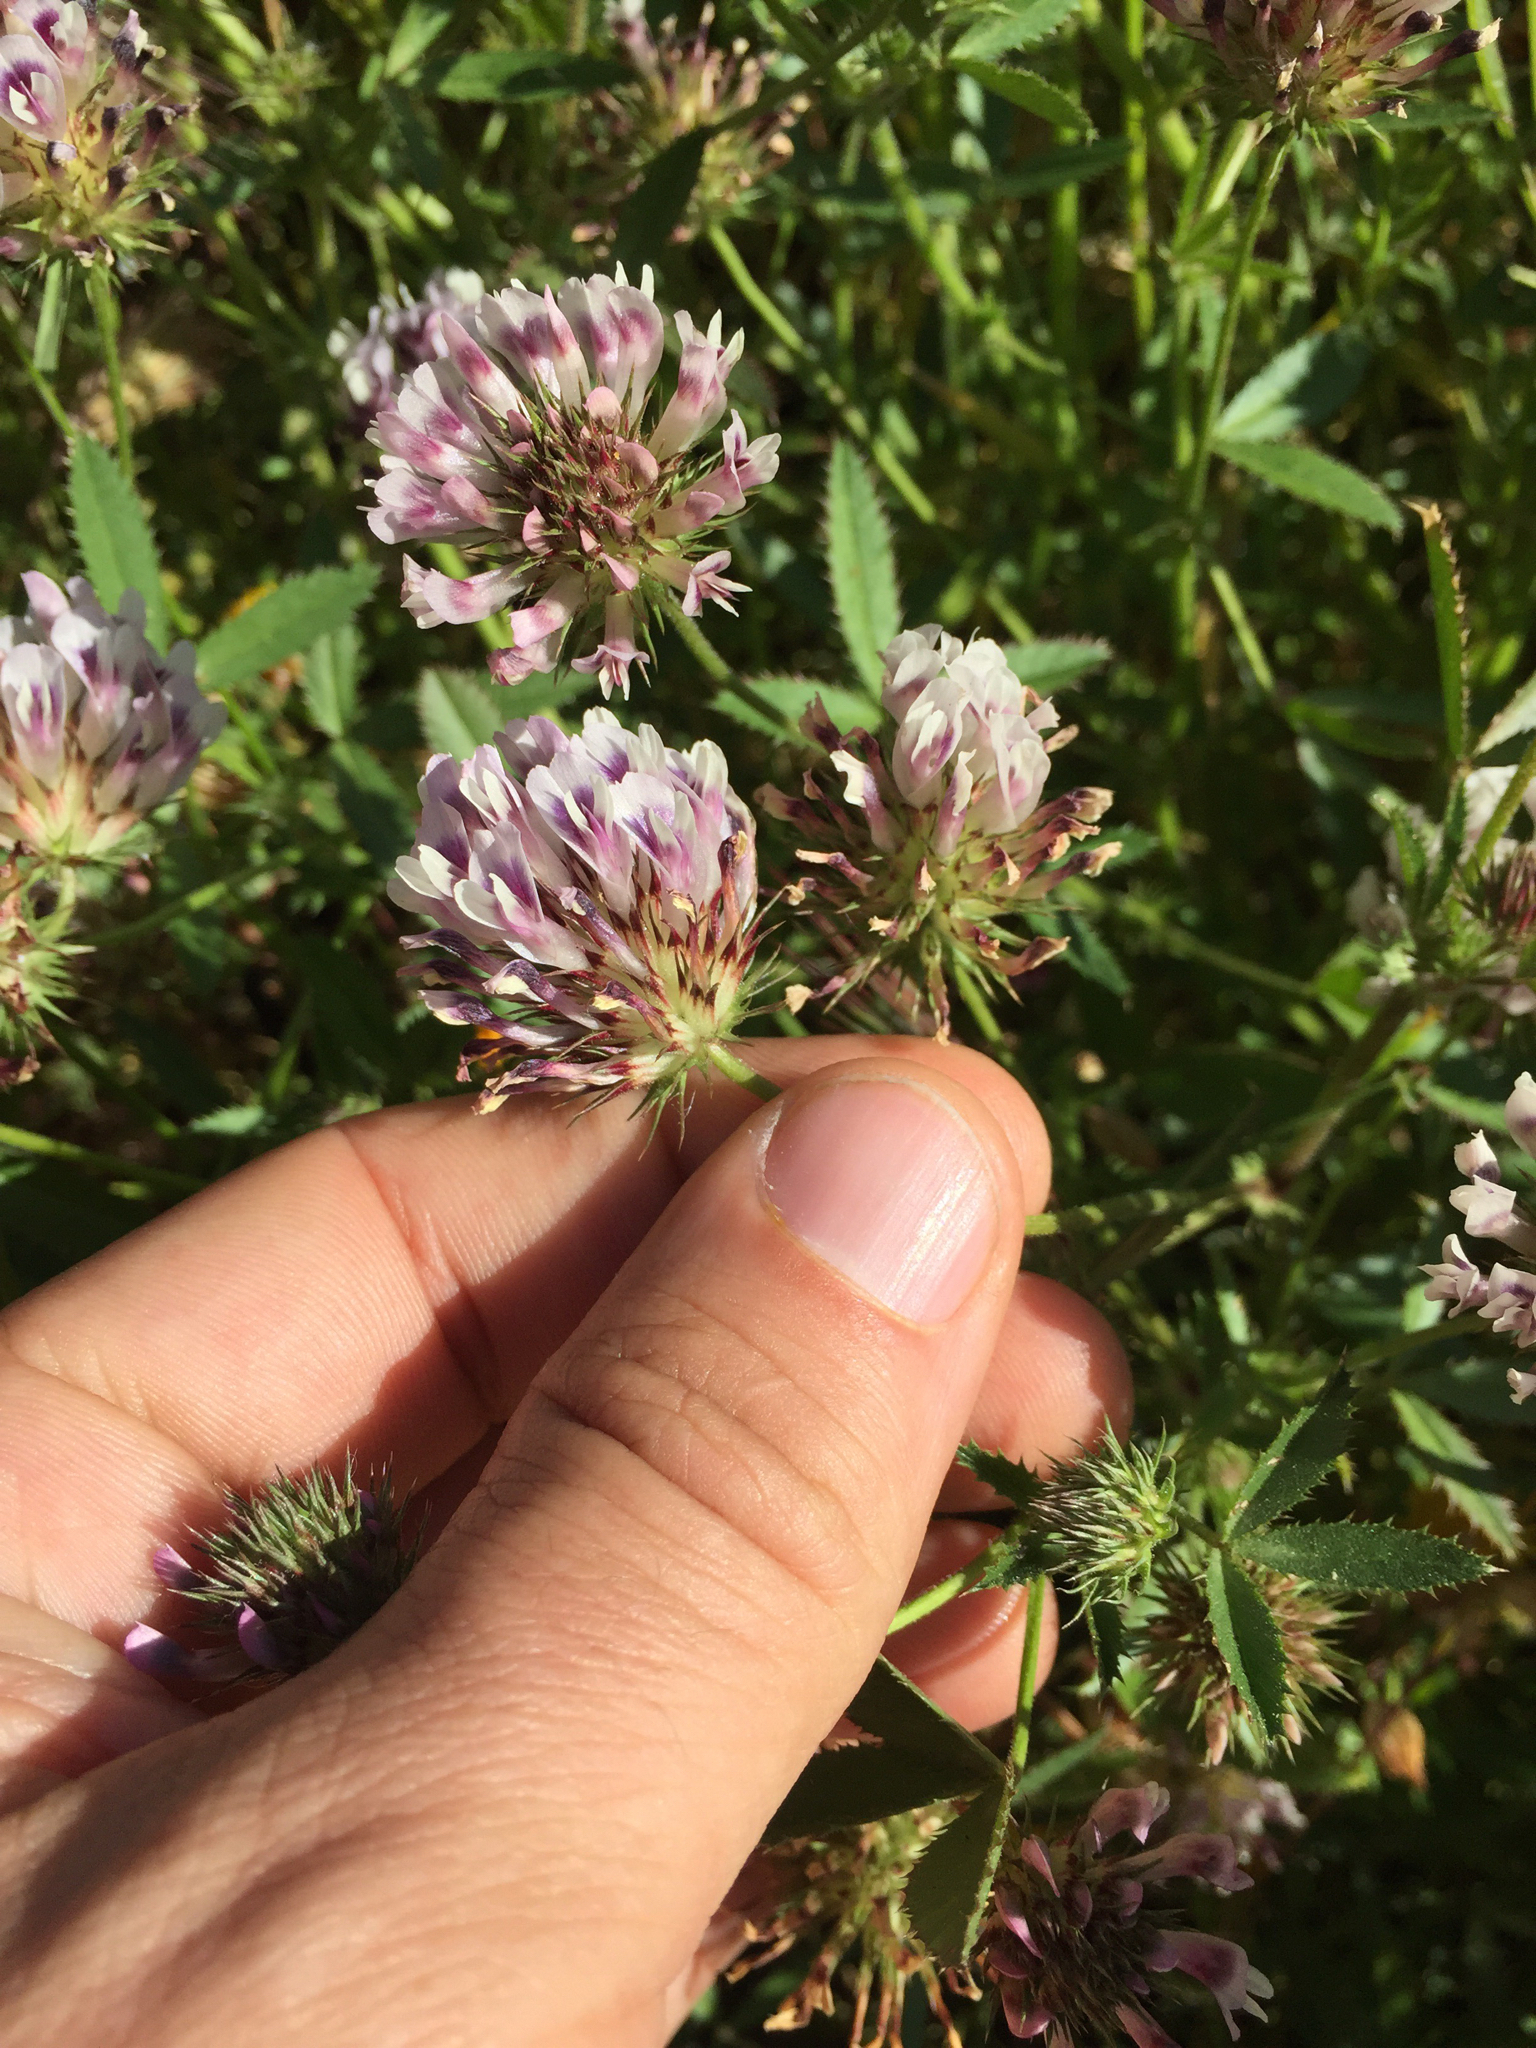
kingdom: Plantae
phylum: Tracheophyta
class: Magnoliopsida
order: Fabales
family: Fabaceae
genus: Trifolium
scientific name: Trifolium obtusiflorum
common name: Clammy clover
